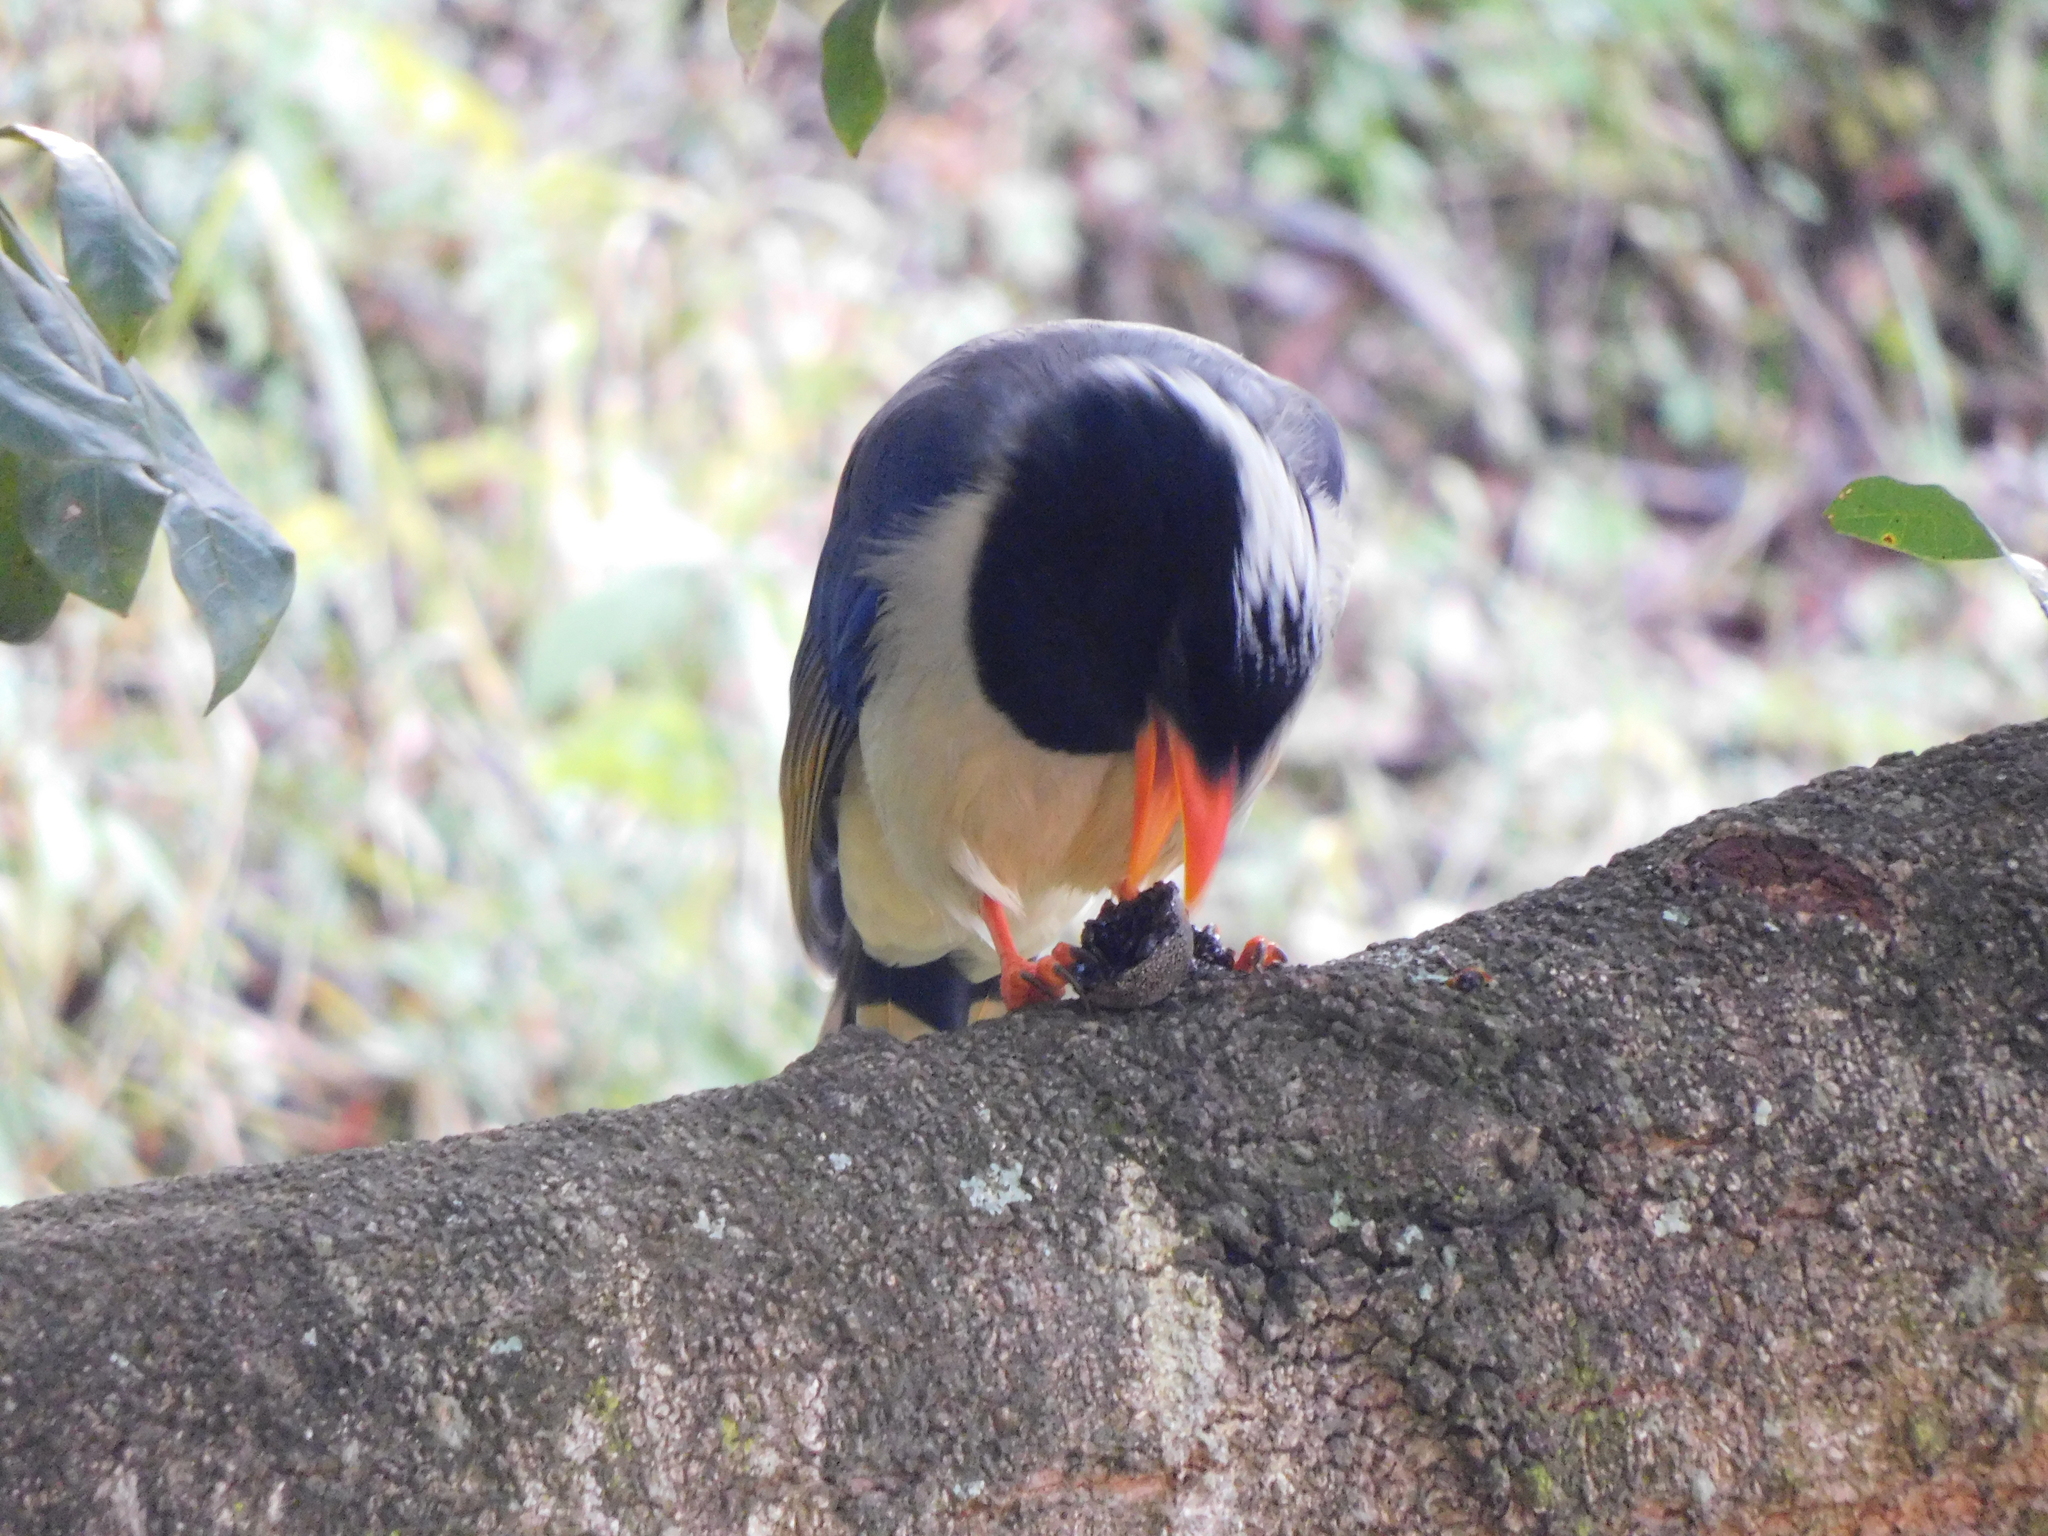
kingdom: Animalia
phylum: Chordata
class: Aves
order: Passeriformes
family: Corvidae
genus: Urocissa
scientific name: Urocissa erythroryncha
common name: Red-billed blue magpie
